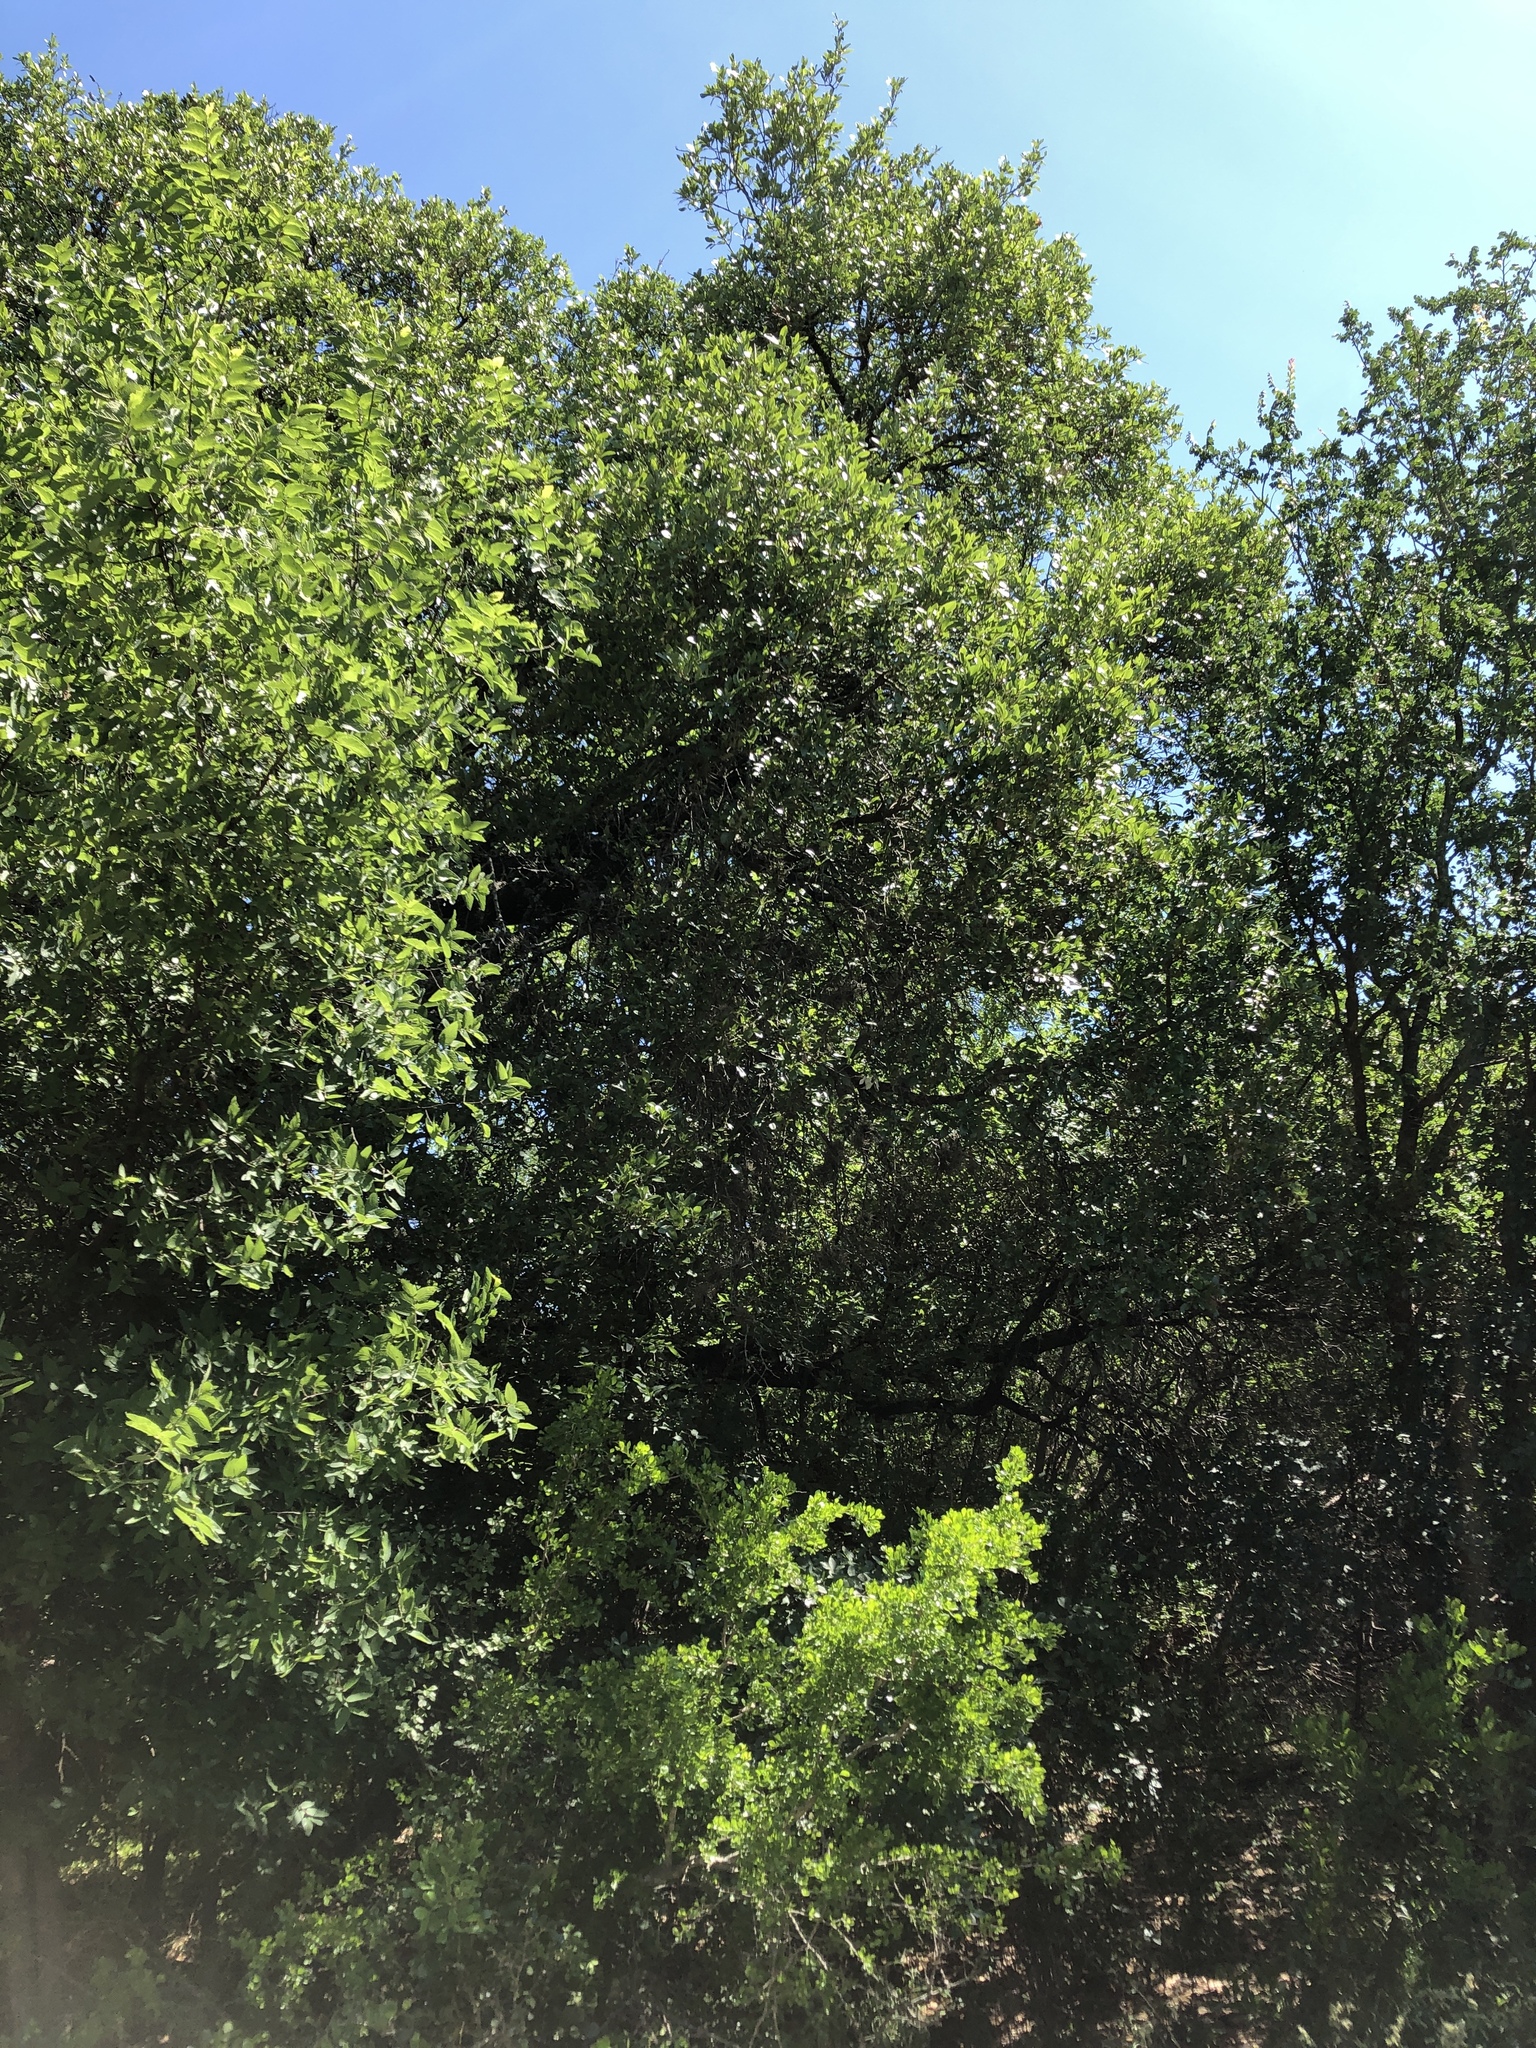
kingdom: Plantae
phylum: Tracheophyta
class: Magnoliopsida
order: Fagales
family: Fagaceae
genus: Quercus
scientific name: Quercus fusiformis
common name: Texas live oak
